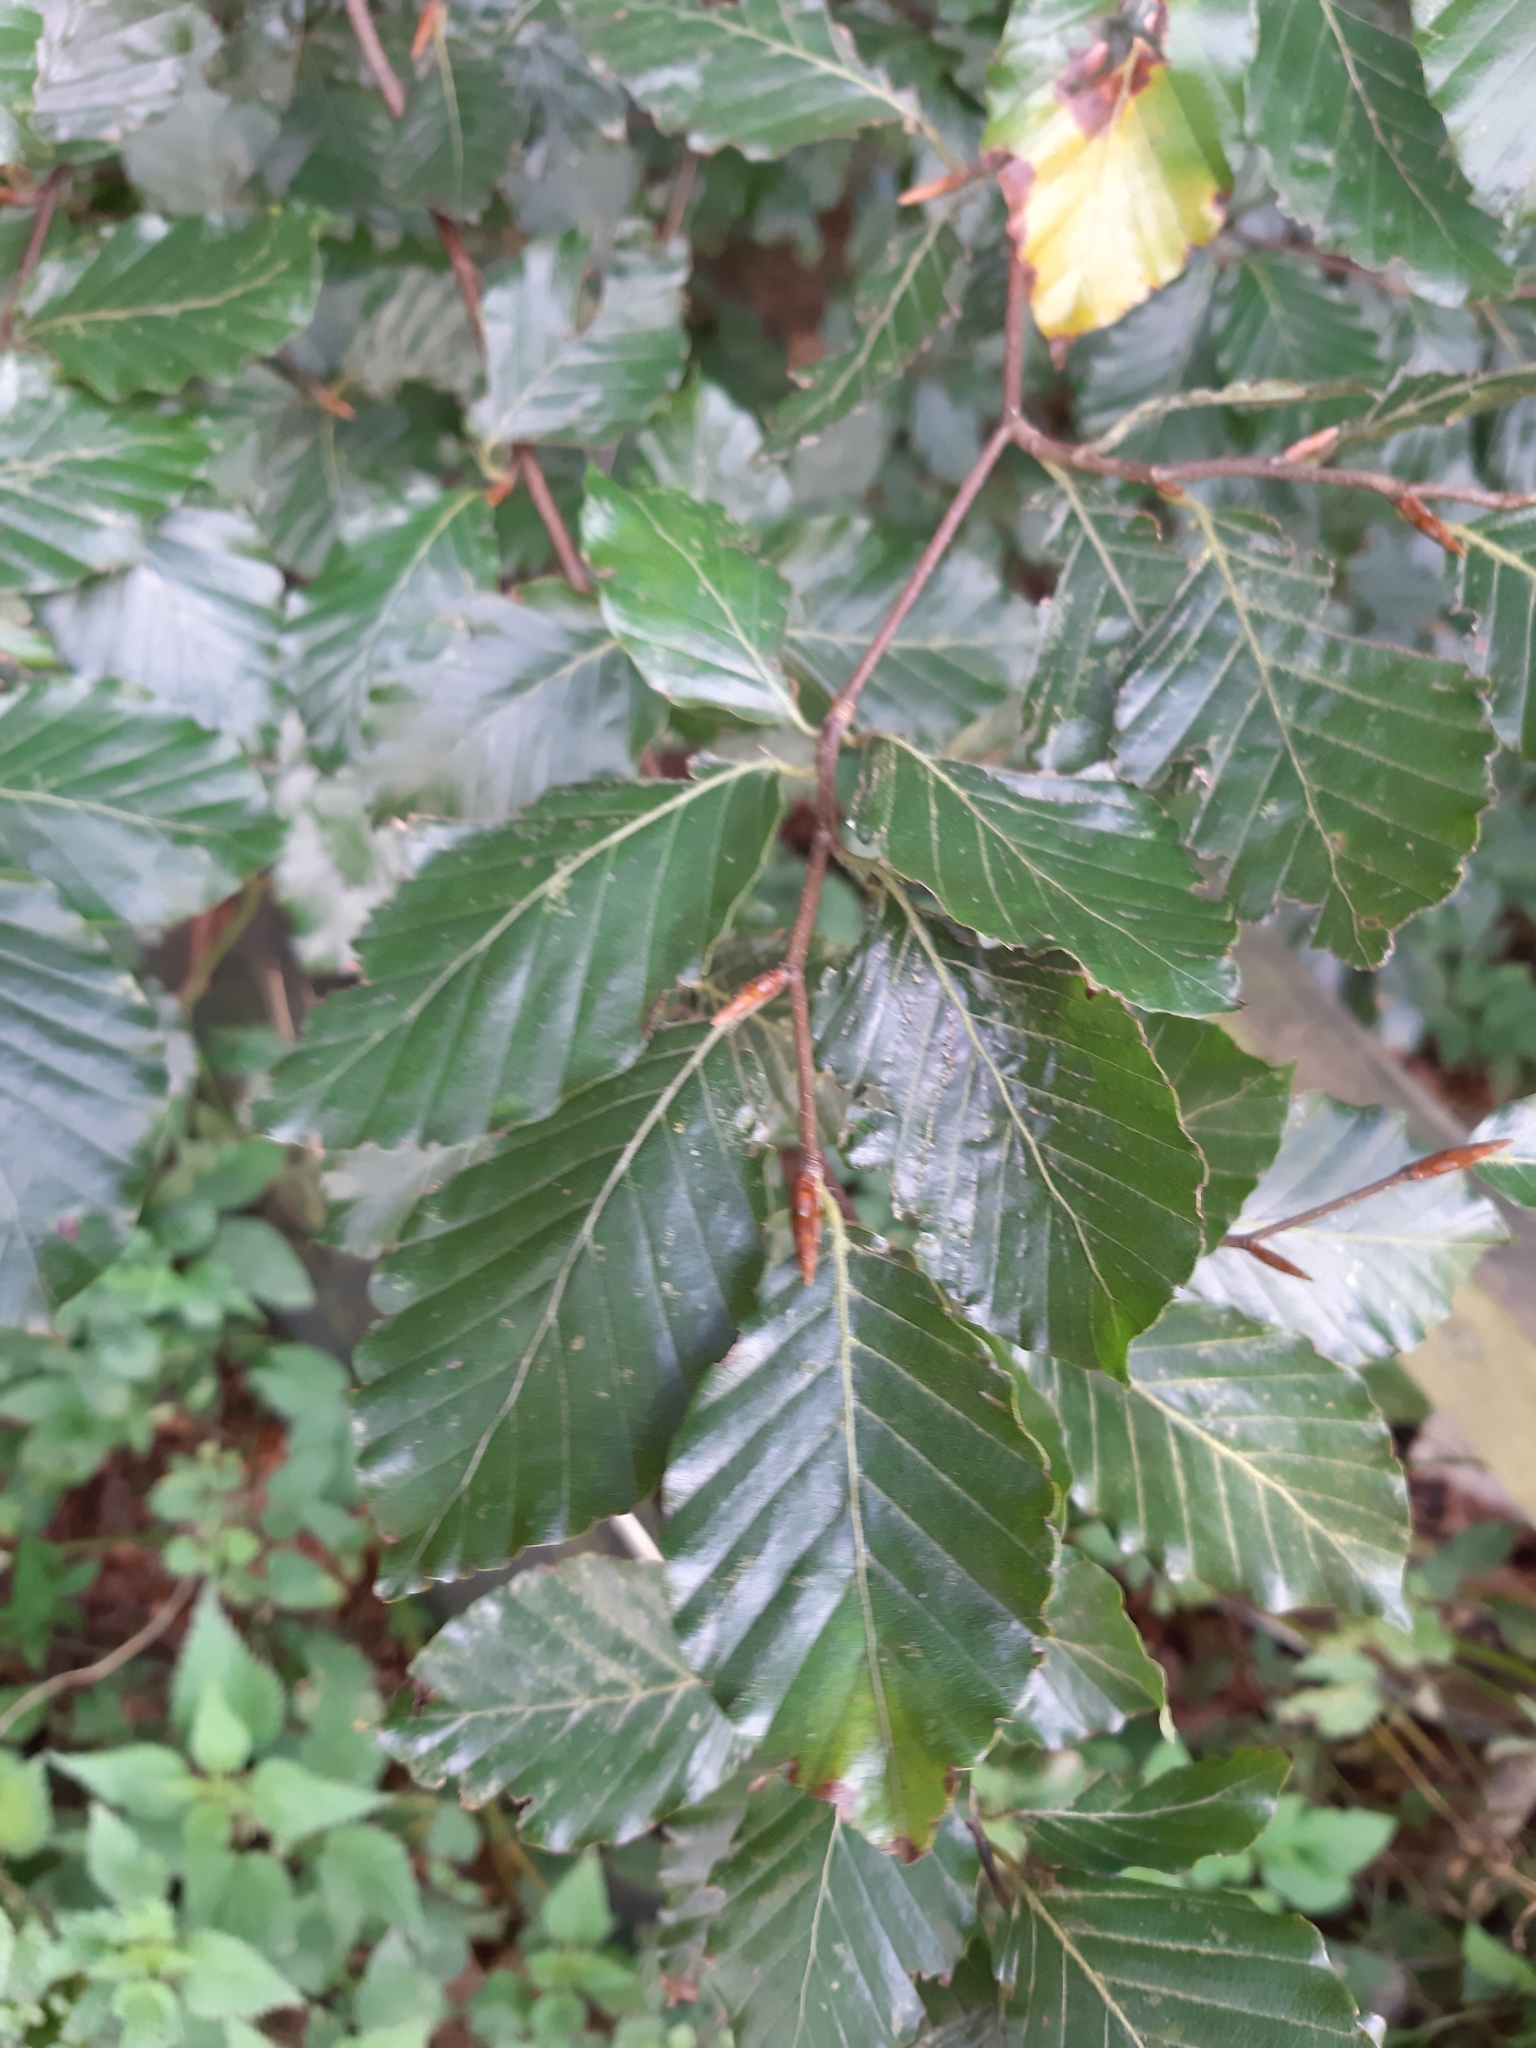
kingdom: Plantae
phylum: Tracheophyta
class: Magnoliopsida
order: Fagales
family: Fagaceae
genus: Fagus
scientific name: Fagus sylvatica
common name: Beech
